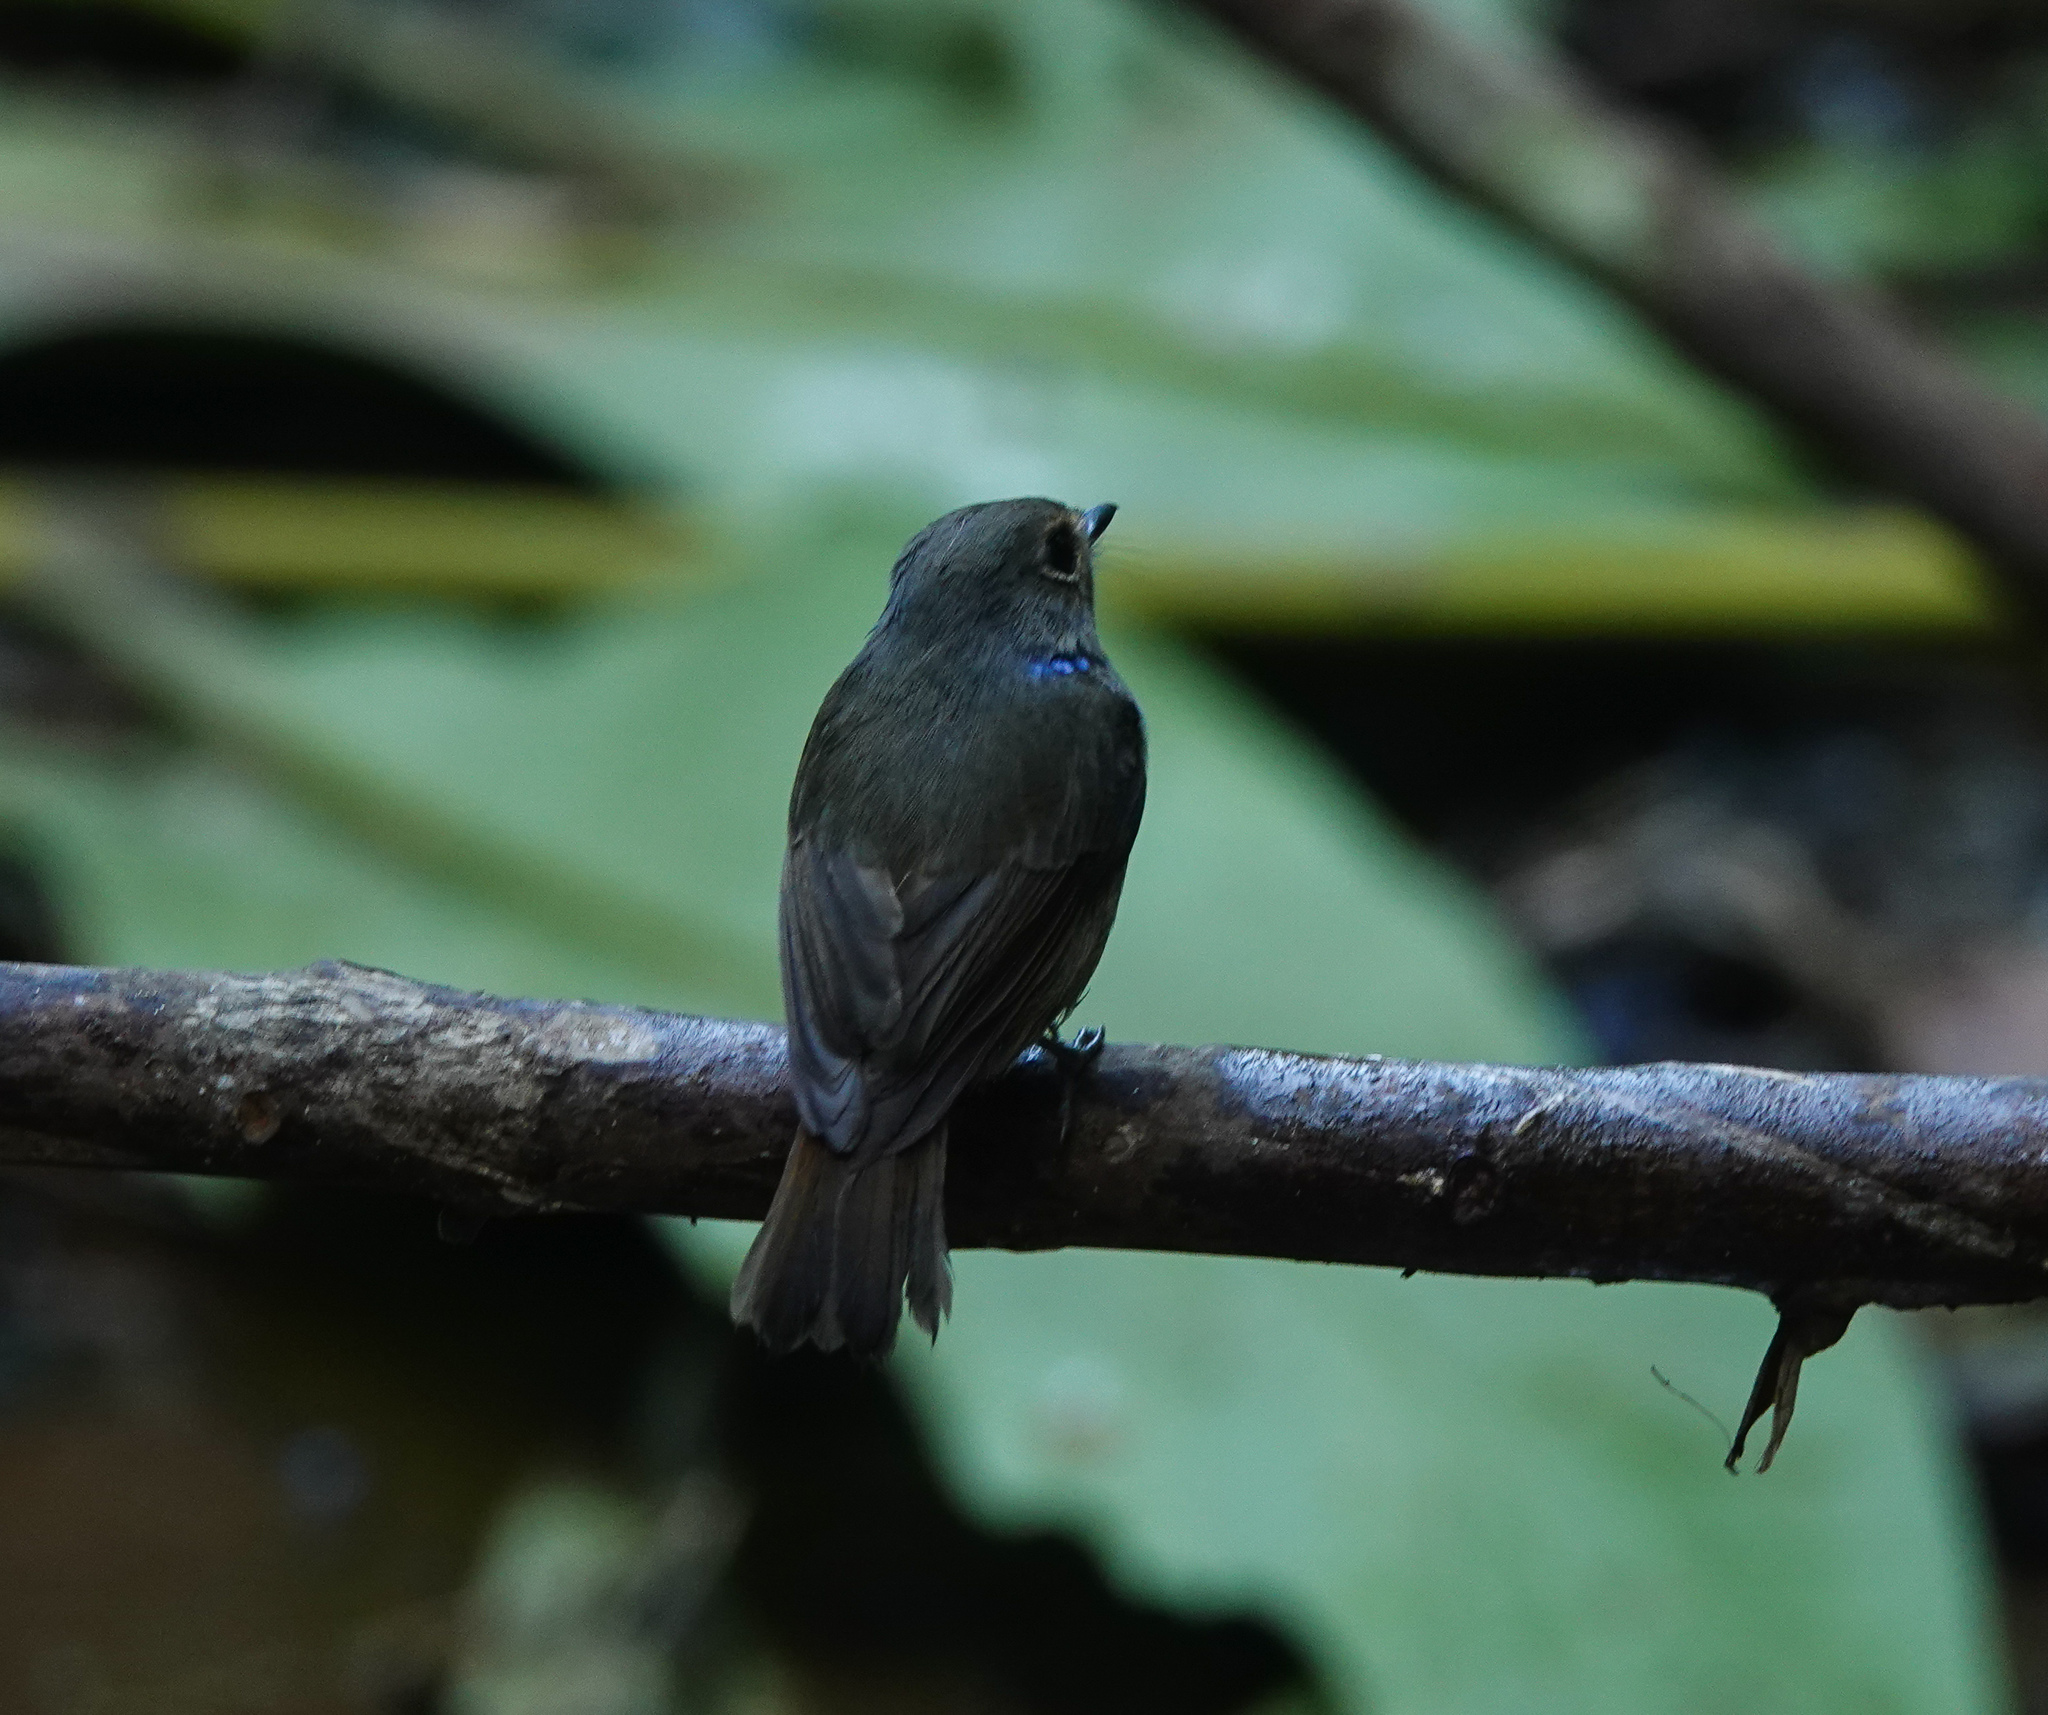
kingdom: Animalia
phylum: Chordata
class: Aves
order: Passeriformes
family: Muscicapidae
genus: Niltava
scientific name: Niltava macgrigoriae
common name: Small niltava
